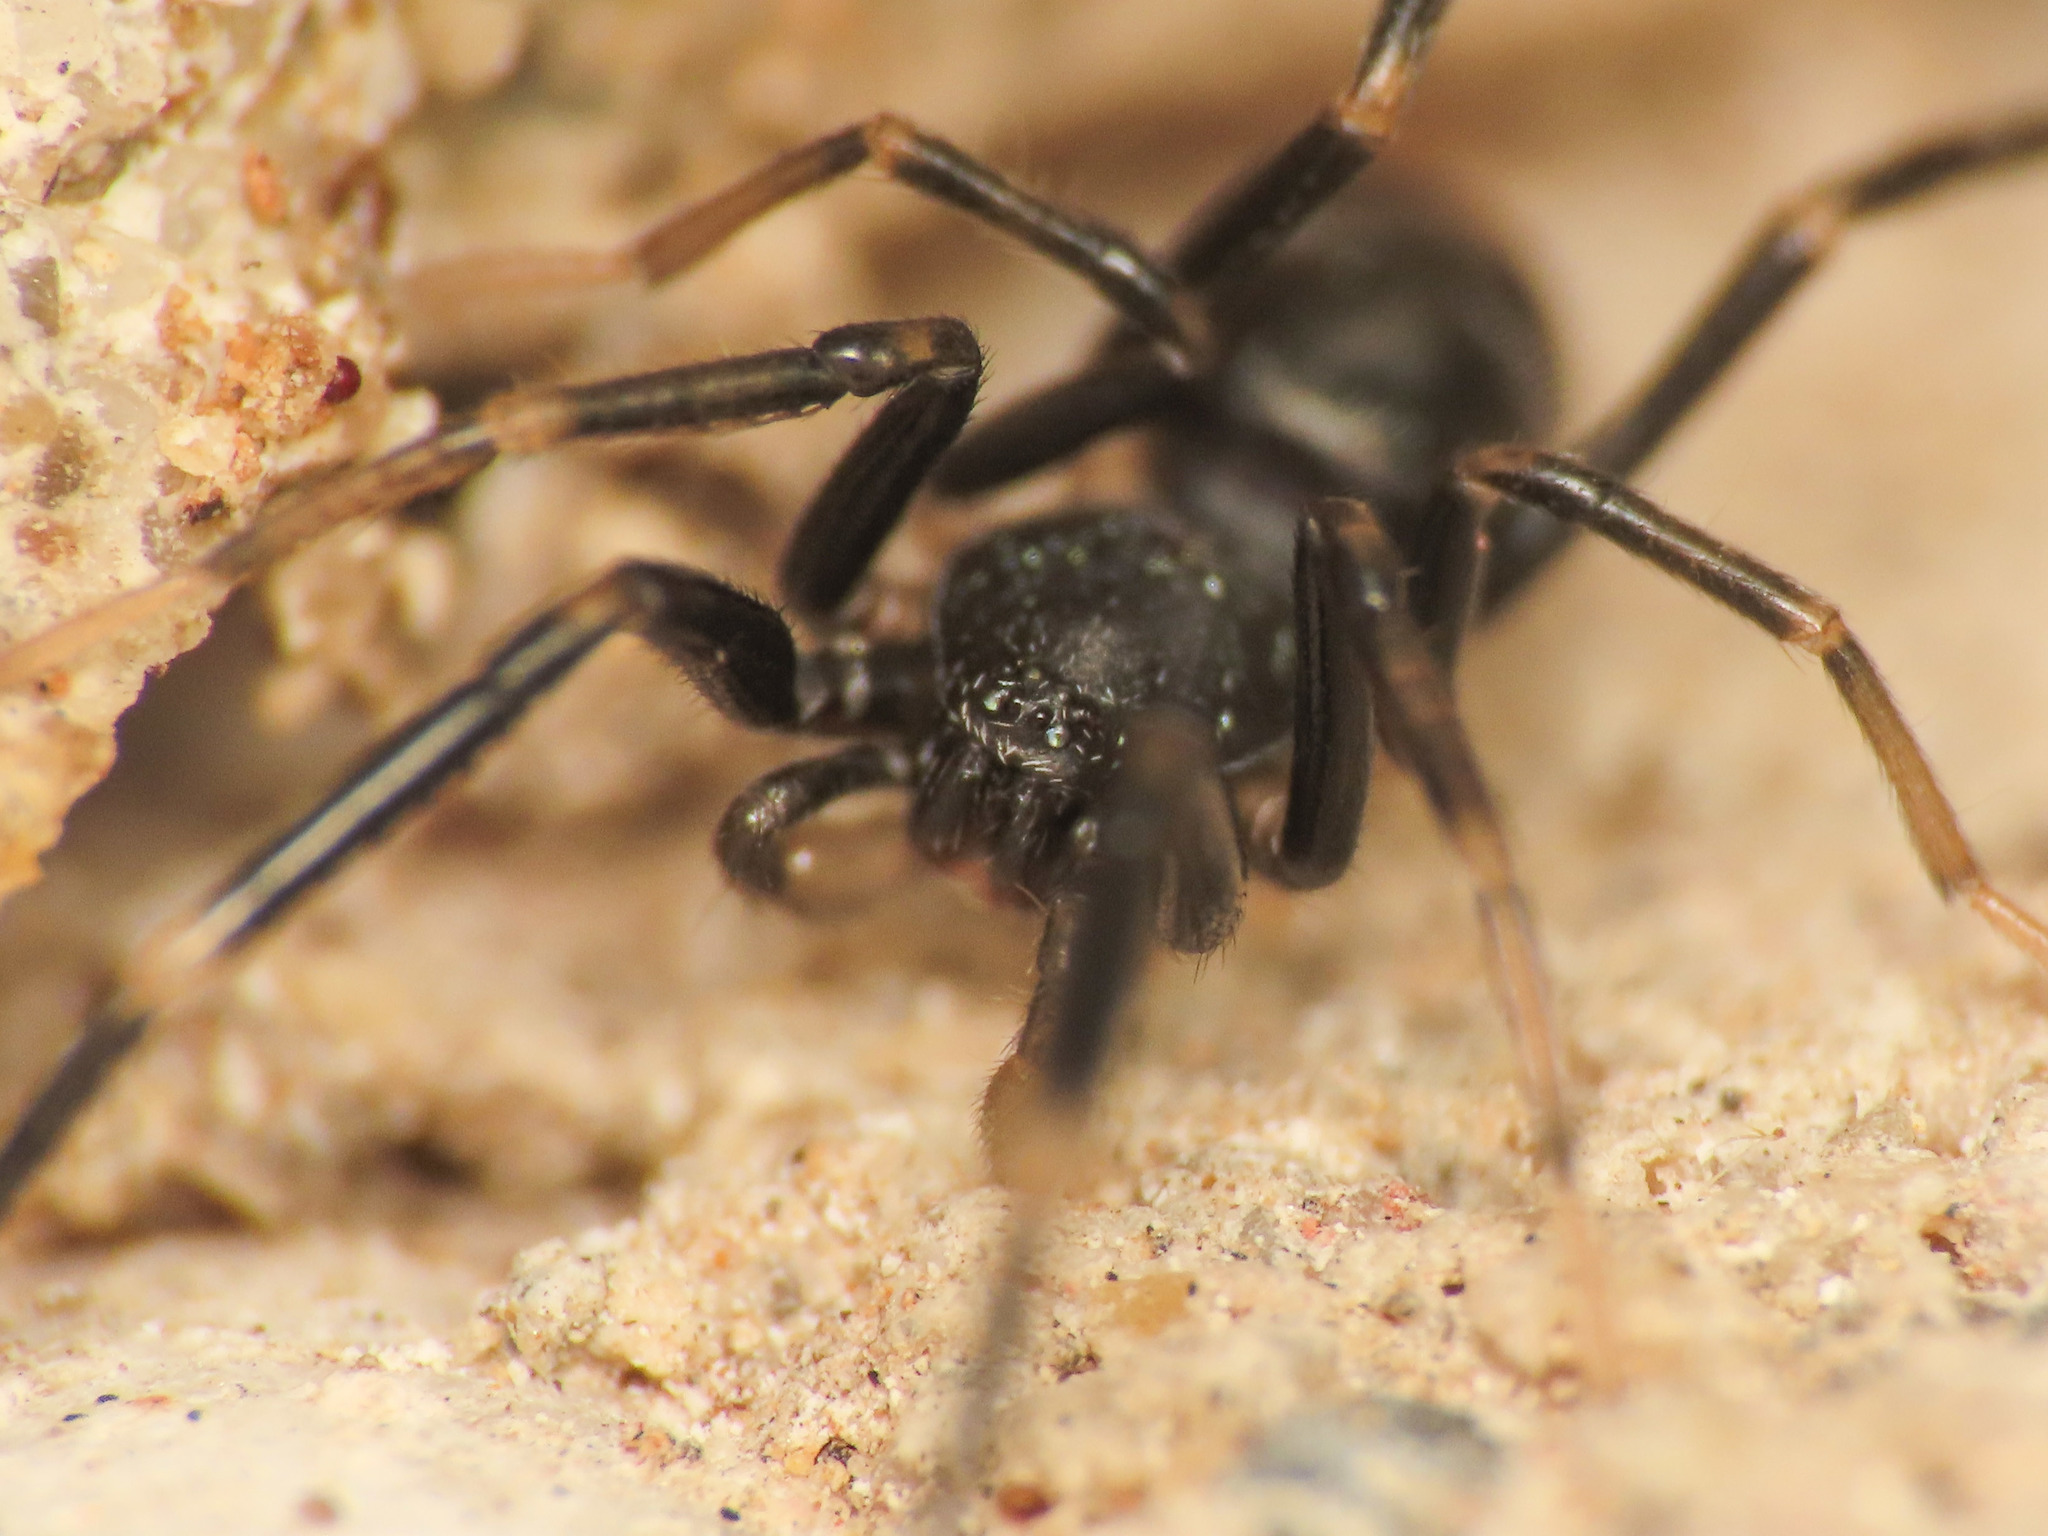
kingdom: Animalia
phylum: Arthropoda
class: Arachnida
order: Araneae
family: Phrurolithidae
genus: Liophrurillus
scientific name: Liophrurillus flavitarsis
